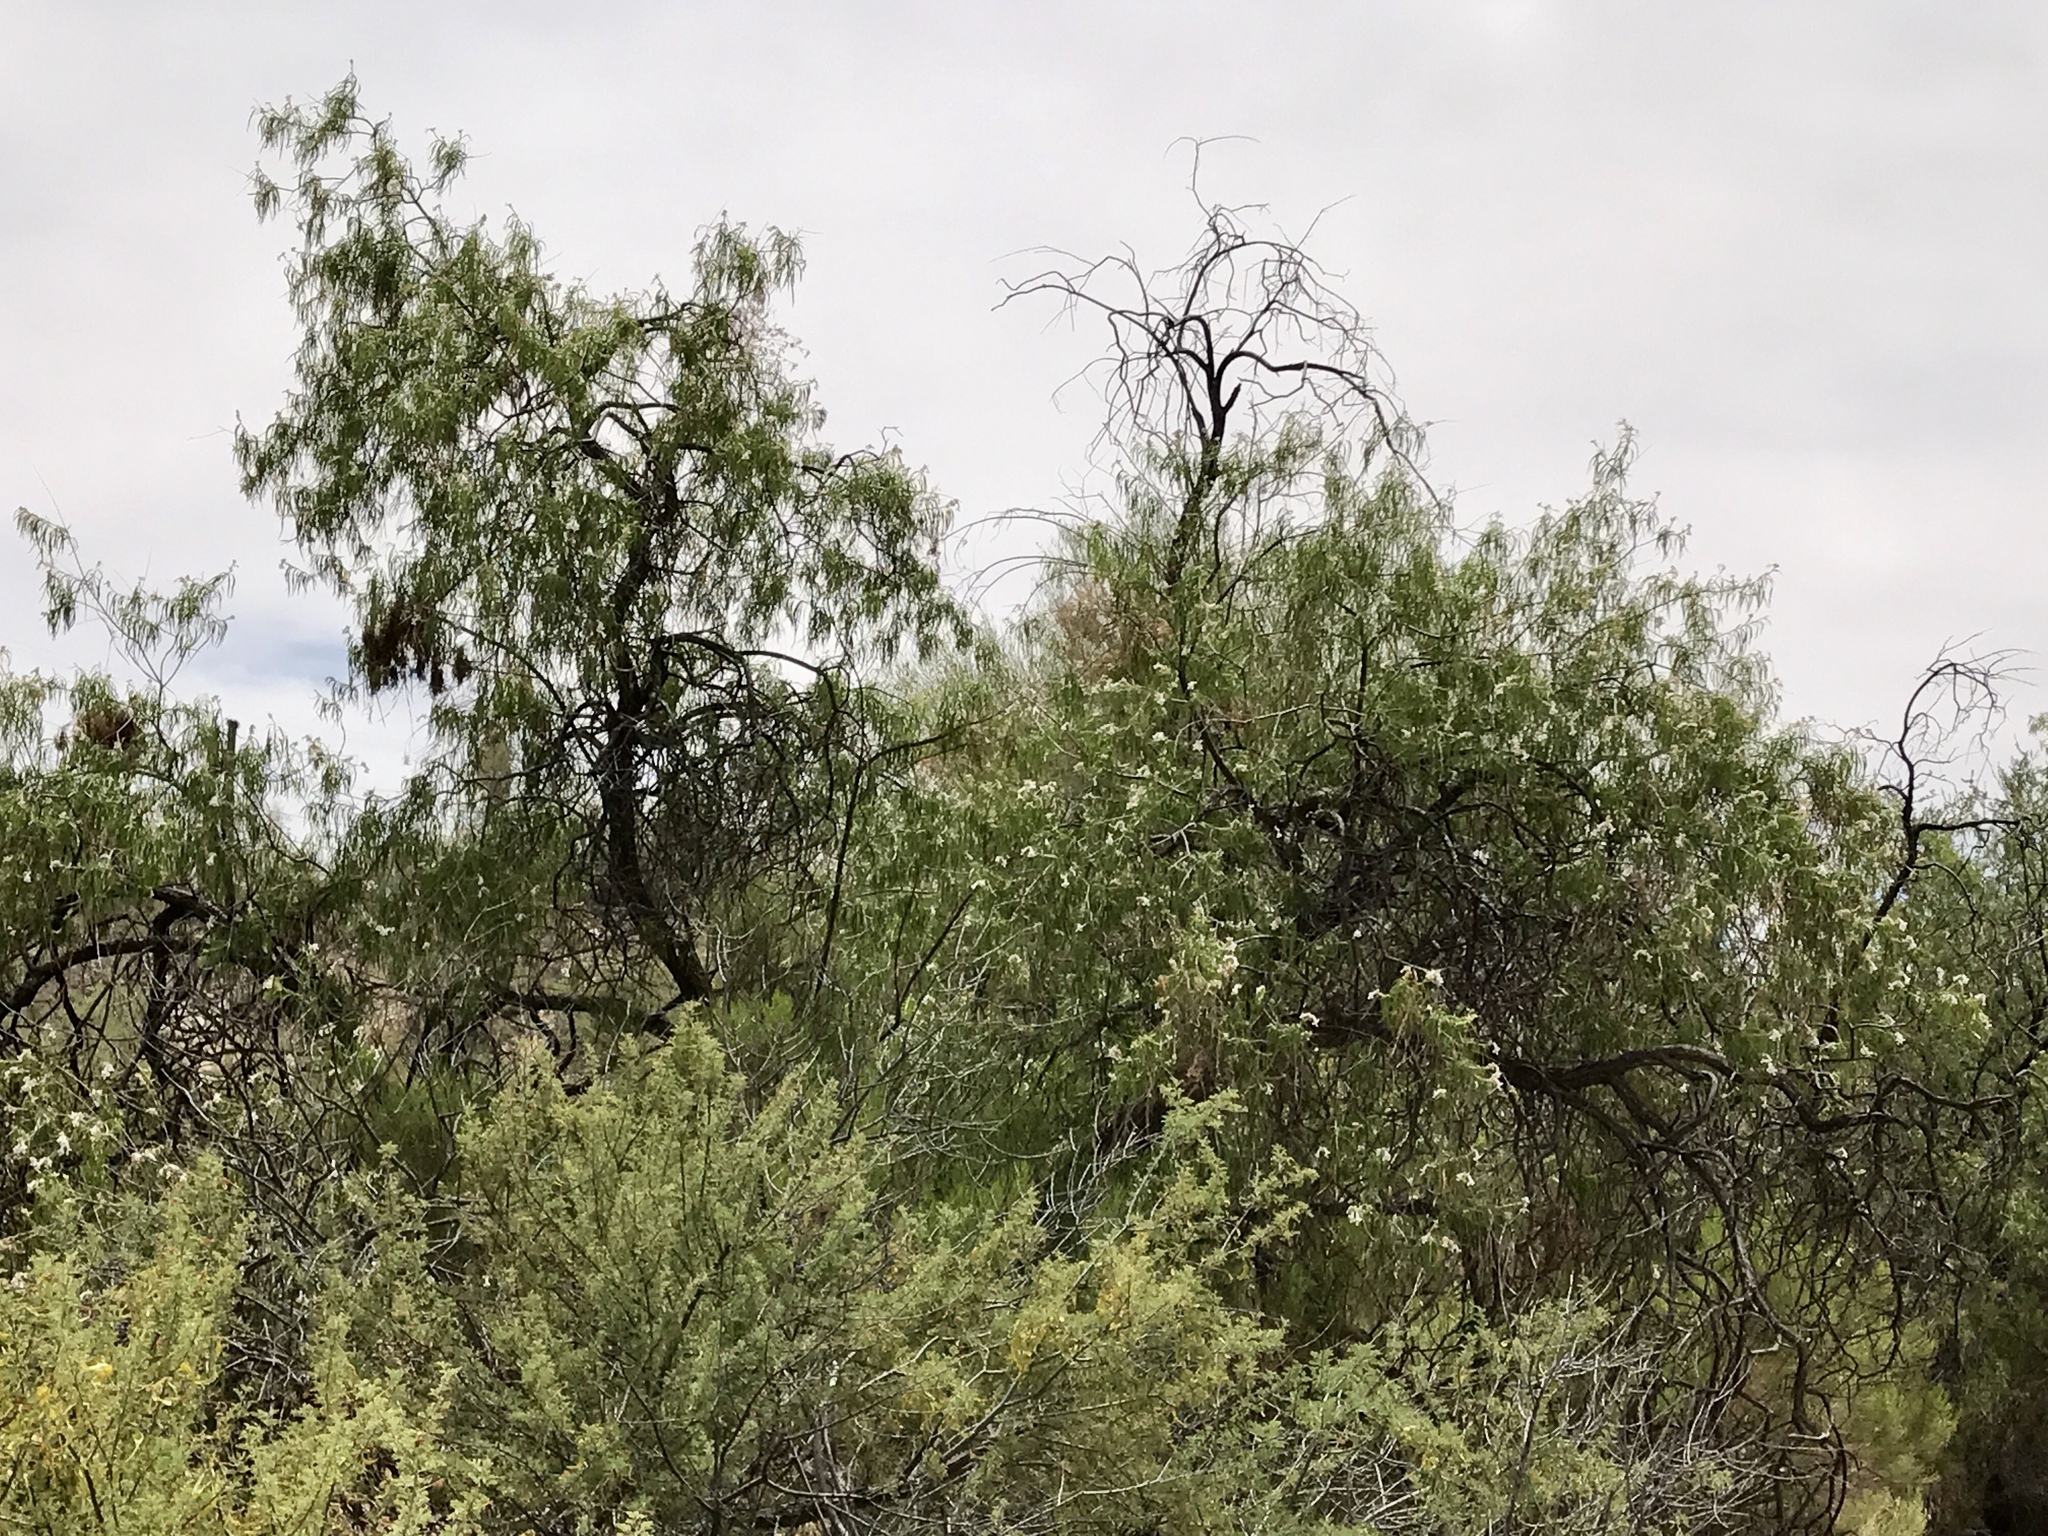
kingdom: Plantae
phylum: Tracheophyta
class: Magnoliopsida
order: Lamiales
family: Bignoniaceae
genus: Chilopsis
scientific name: Chilopsis linearis
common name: Desert-willow
